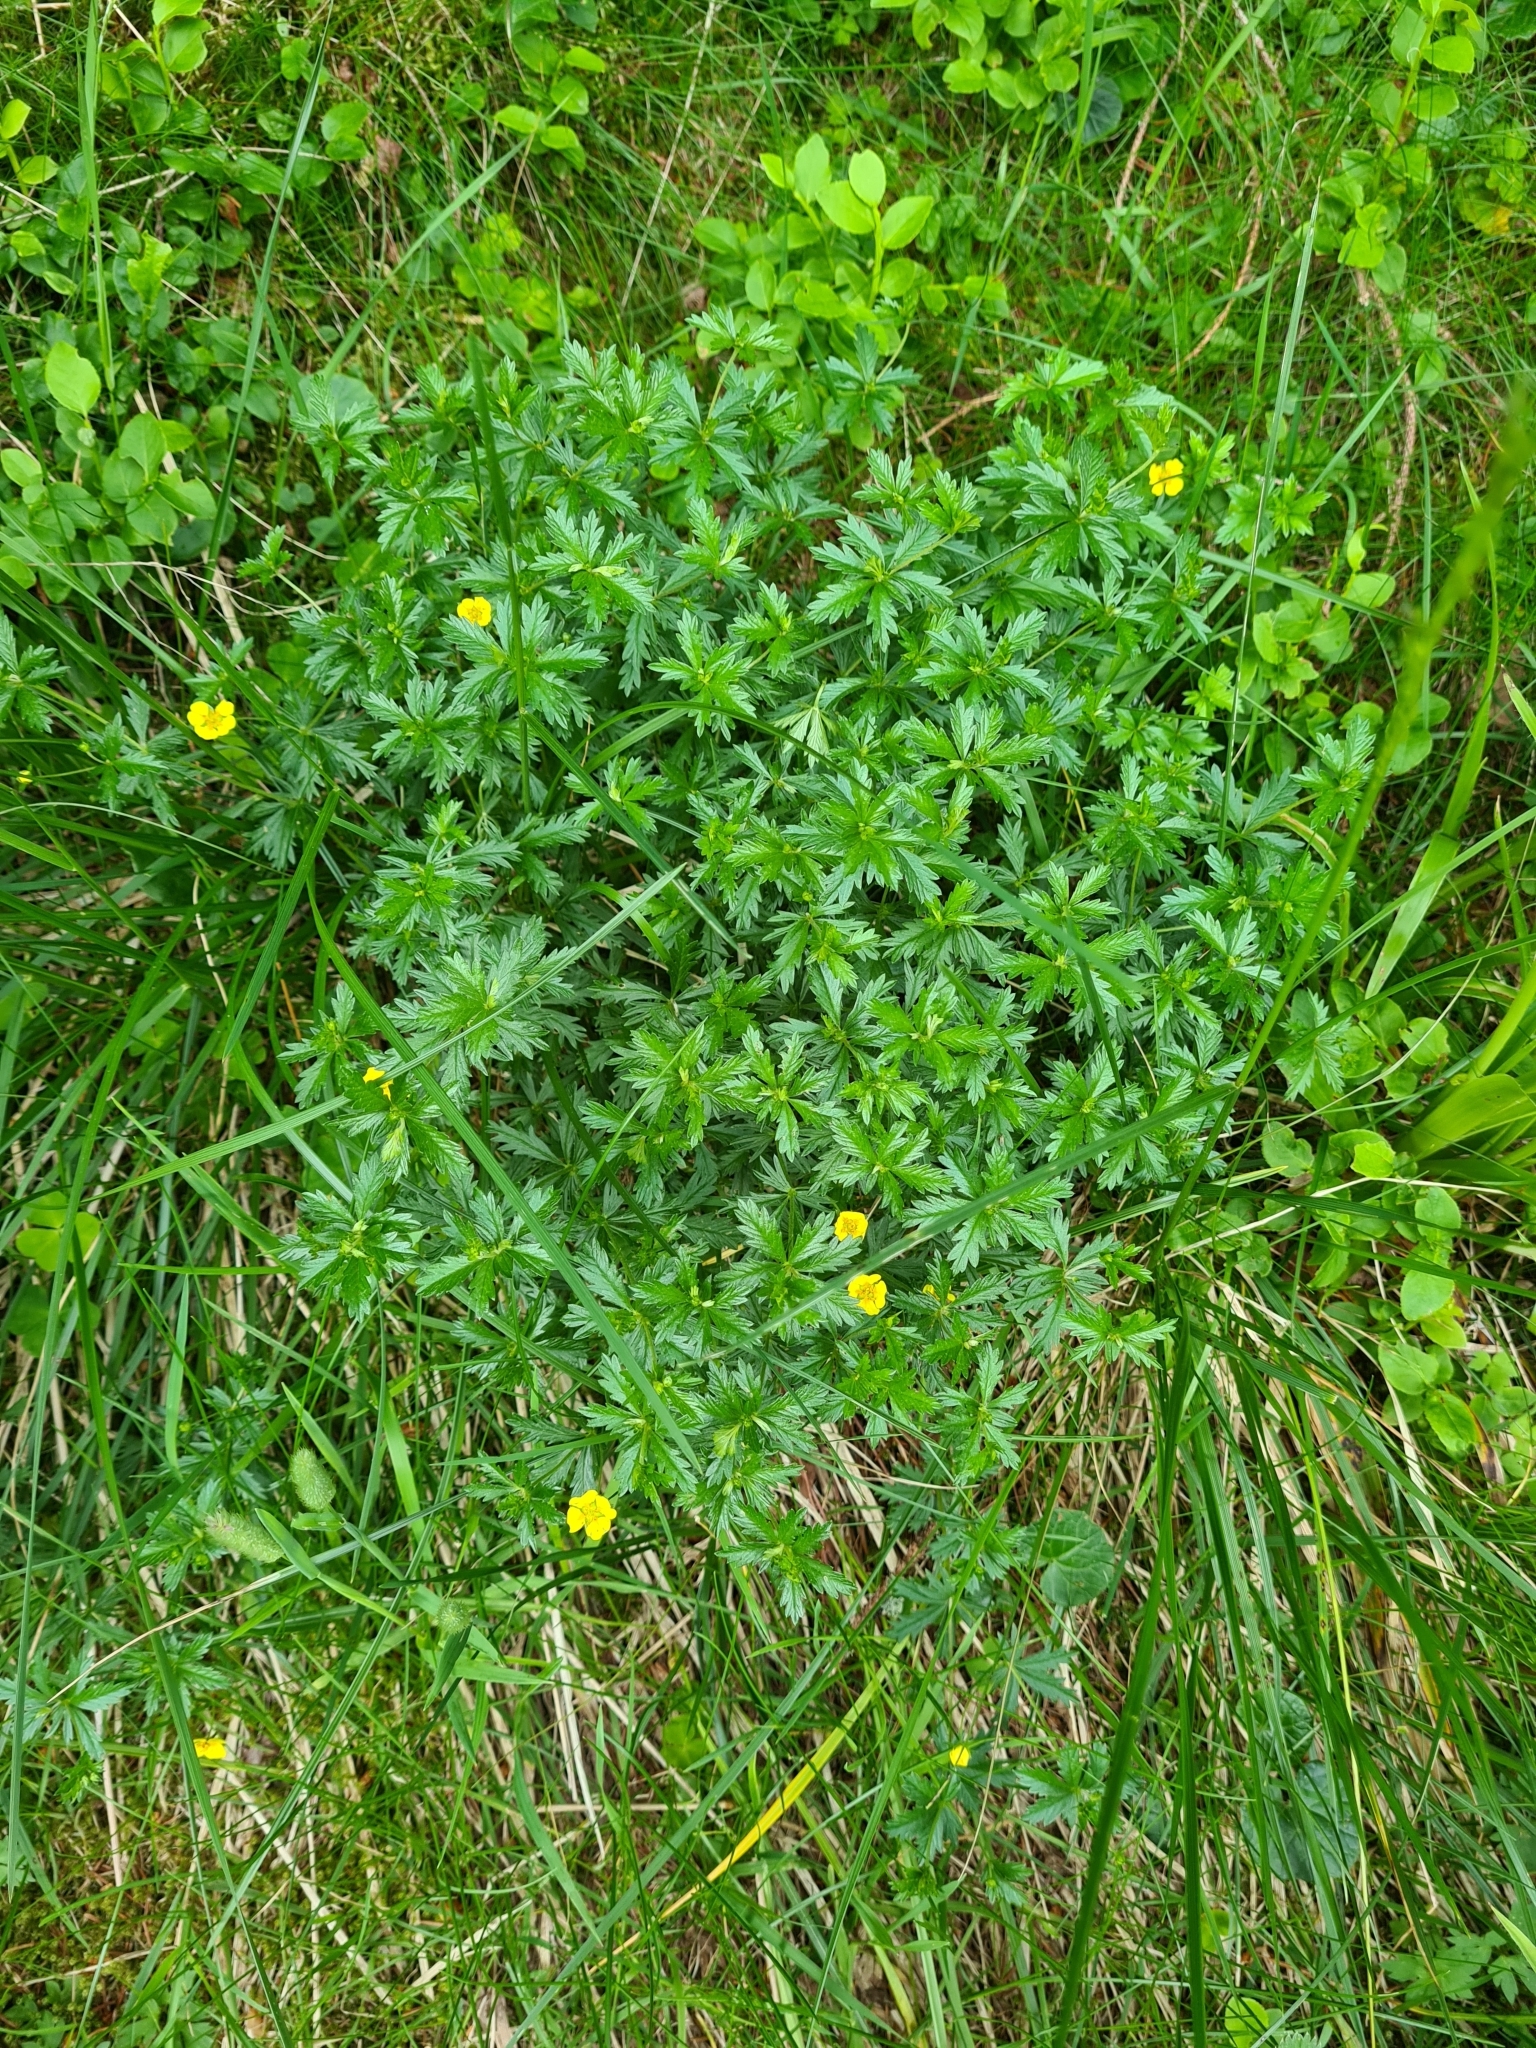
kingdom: Plantae
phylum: Tracheophyta
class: Magnoliopsida
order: Rosales
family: Rosaceae
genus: Potentilla
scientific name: Potentilla erecta
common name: Tormentil
